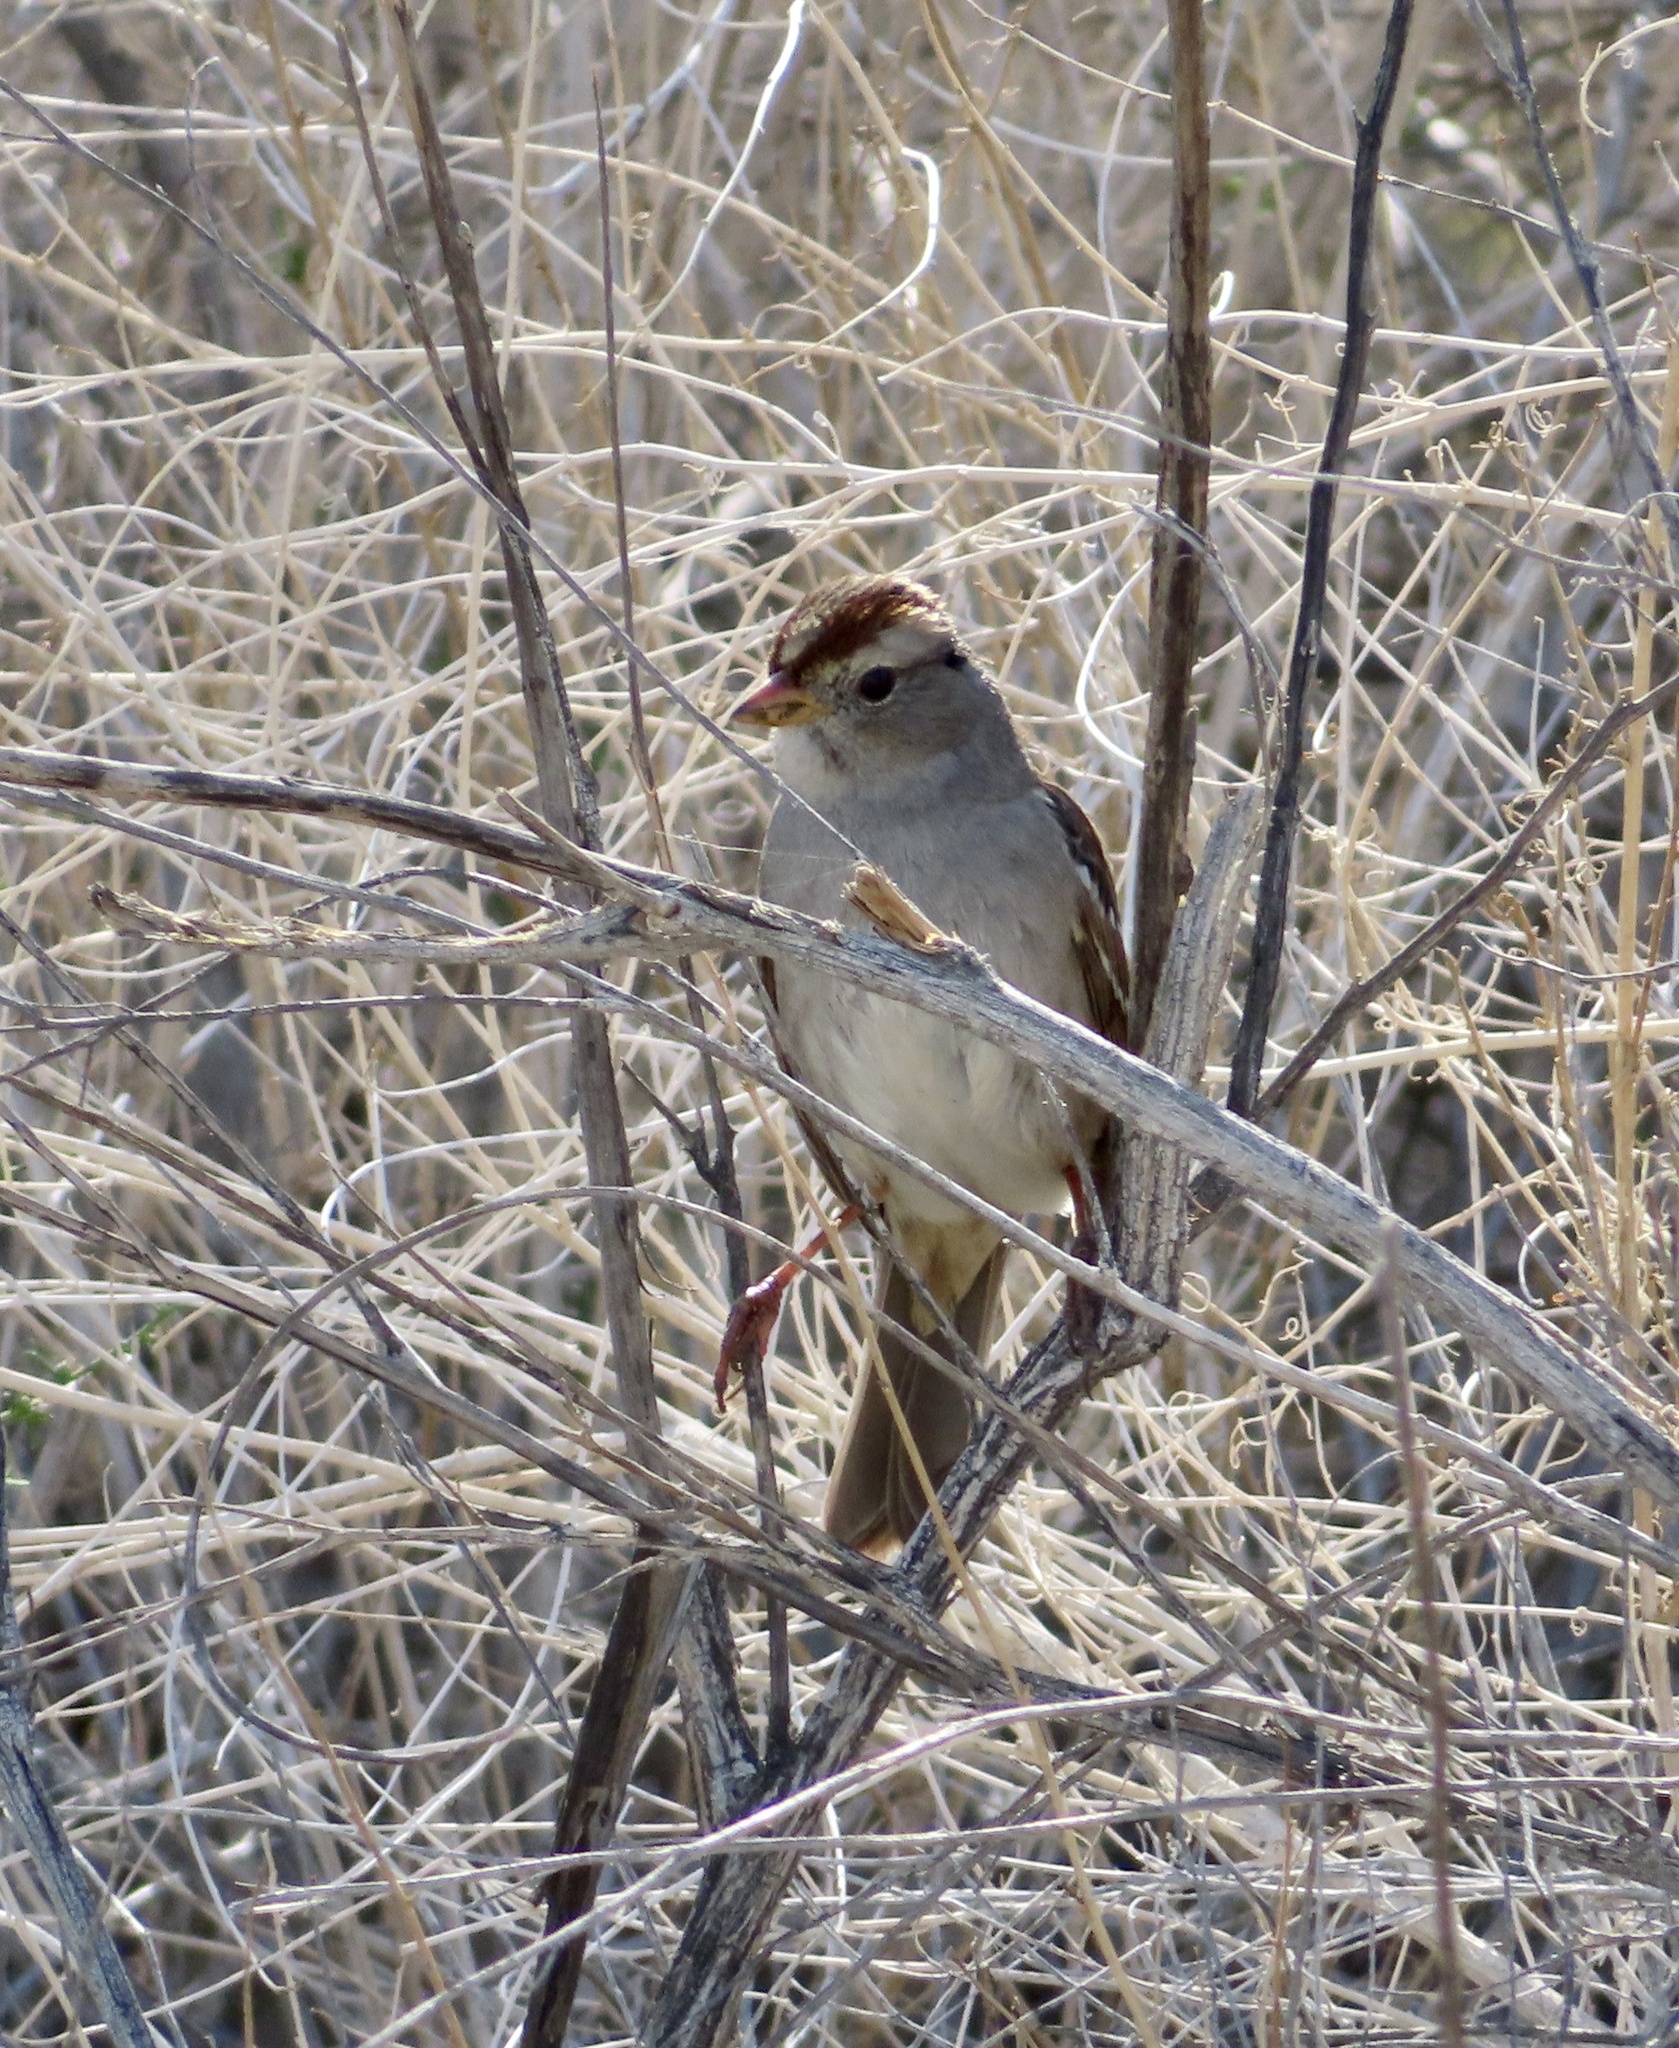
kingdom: Animalia
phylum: Chordata
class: Aves
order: Passeriformes
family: Passerellidae
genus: Zonotrichia
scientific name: Zonotrichia leucophrys
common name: White-crowned sparrow
